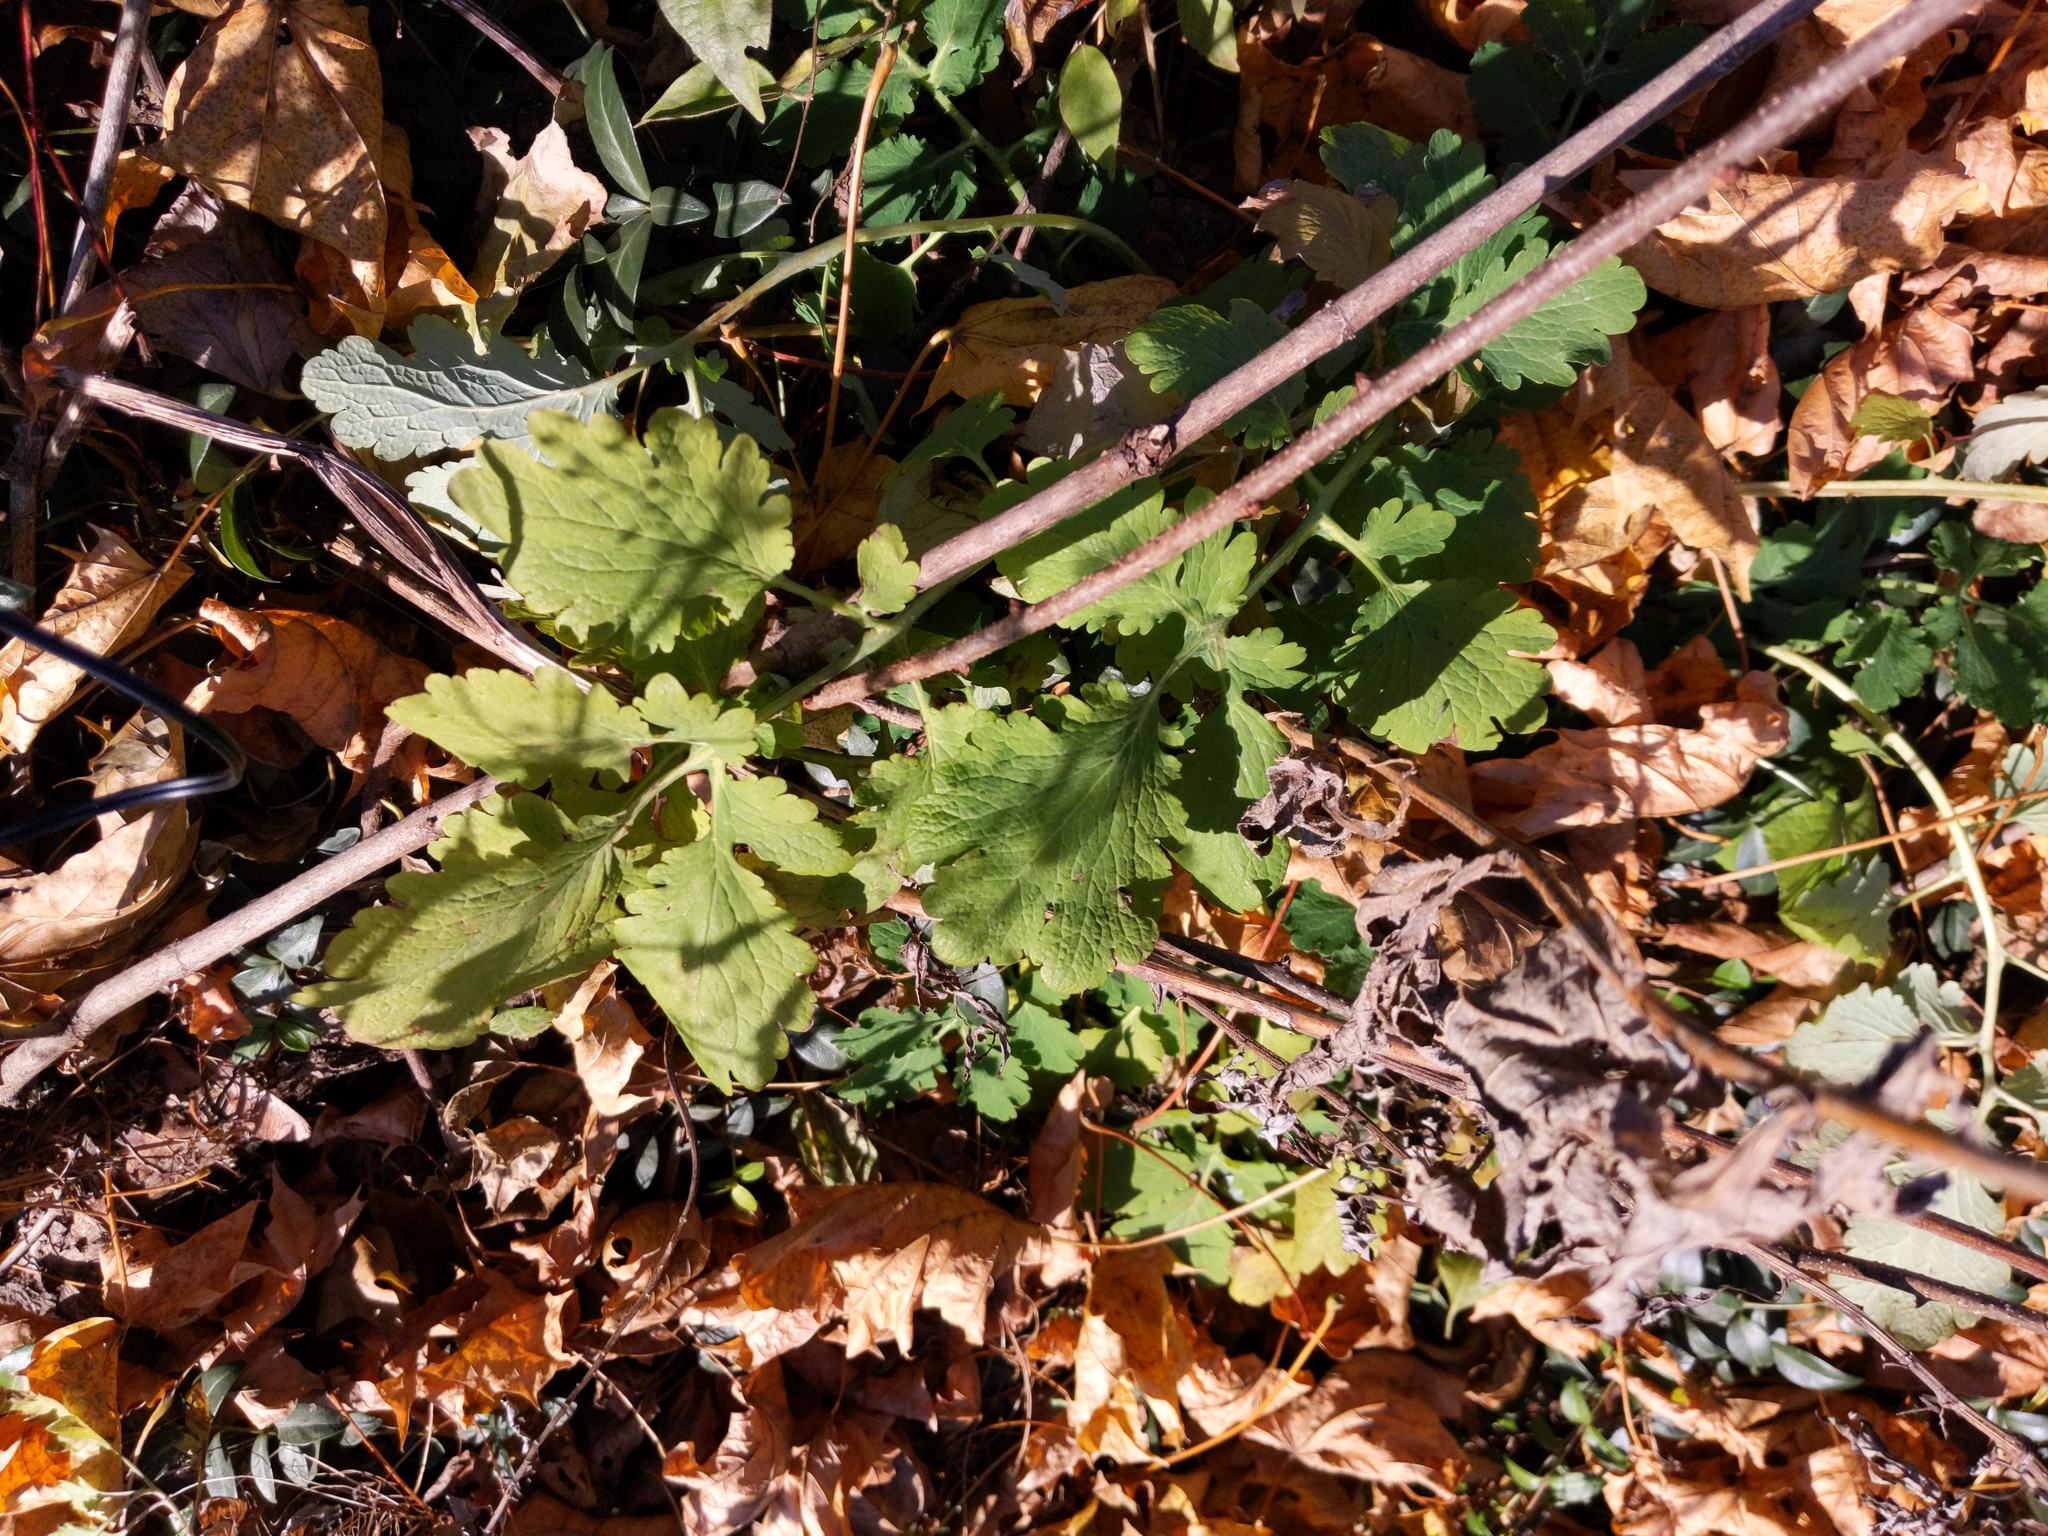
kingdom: Plantae
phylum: Tracheophyta
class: Magnoliopsida
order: Ranunculales
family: Papaveraceae
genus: Chelidonium
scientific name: Chelidonium majus
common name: Greater celandine
